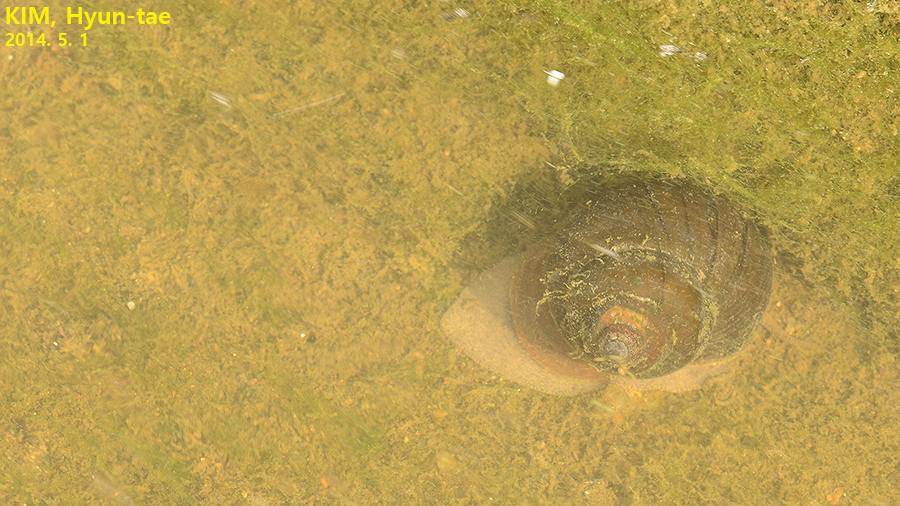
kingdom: Animalia
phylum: Mollusca
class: Gastropoda
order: Architaenioglossa
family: Viviparidae
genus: Cipangopaludina
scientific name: Cipangopaludina chinensis
